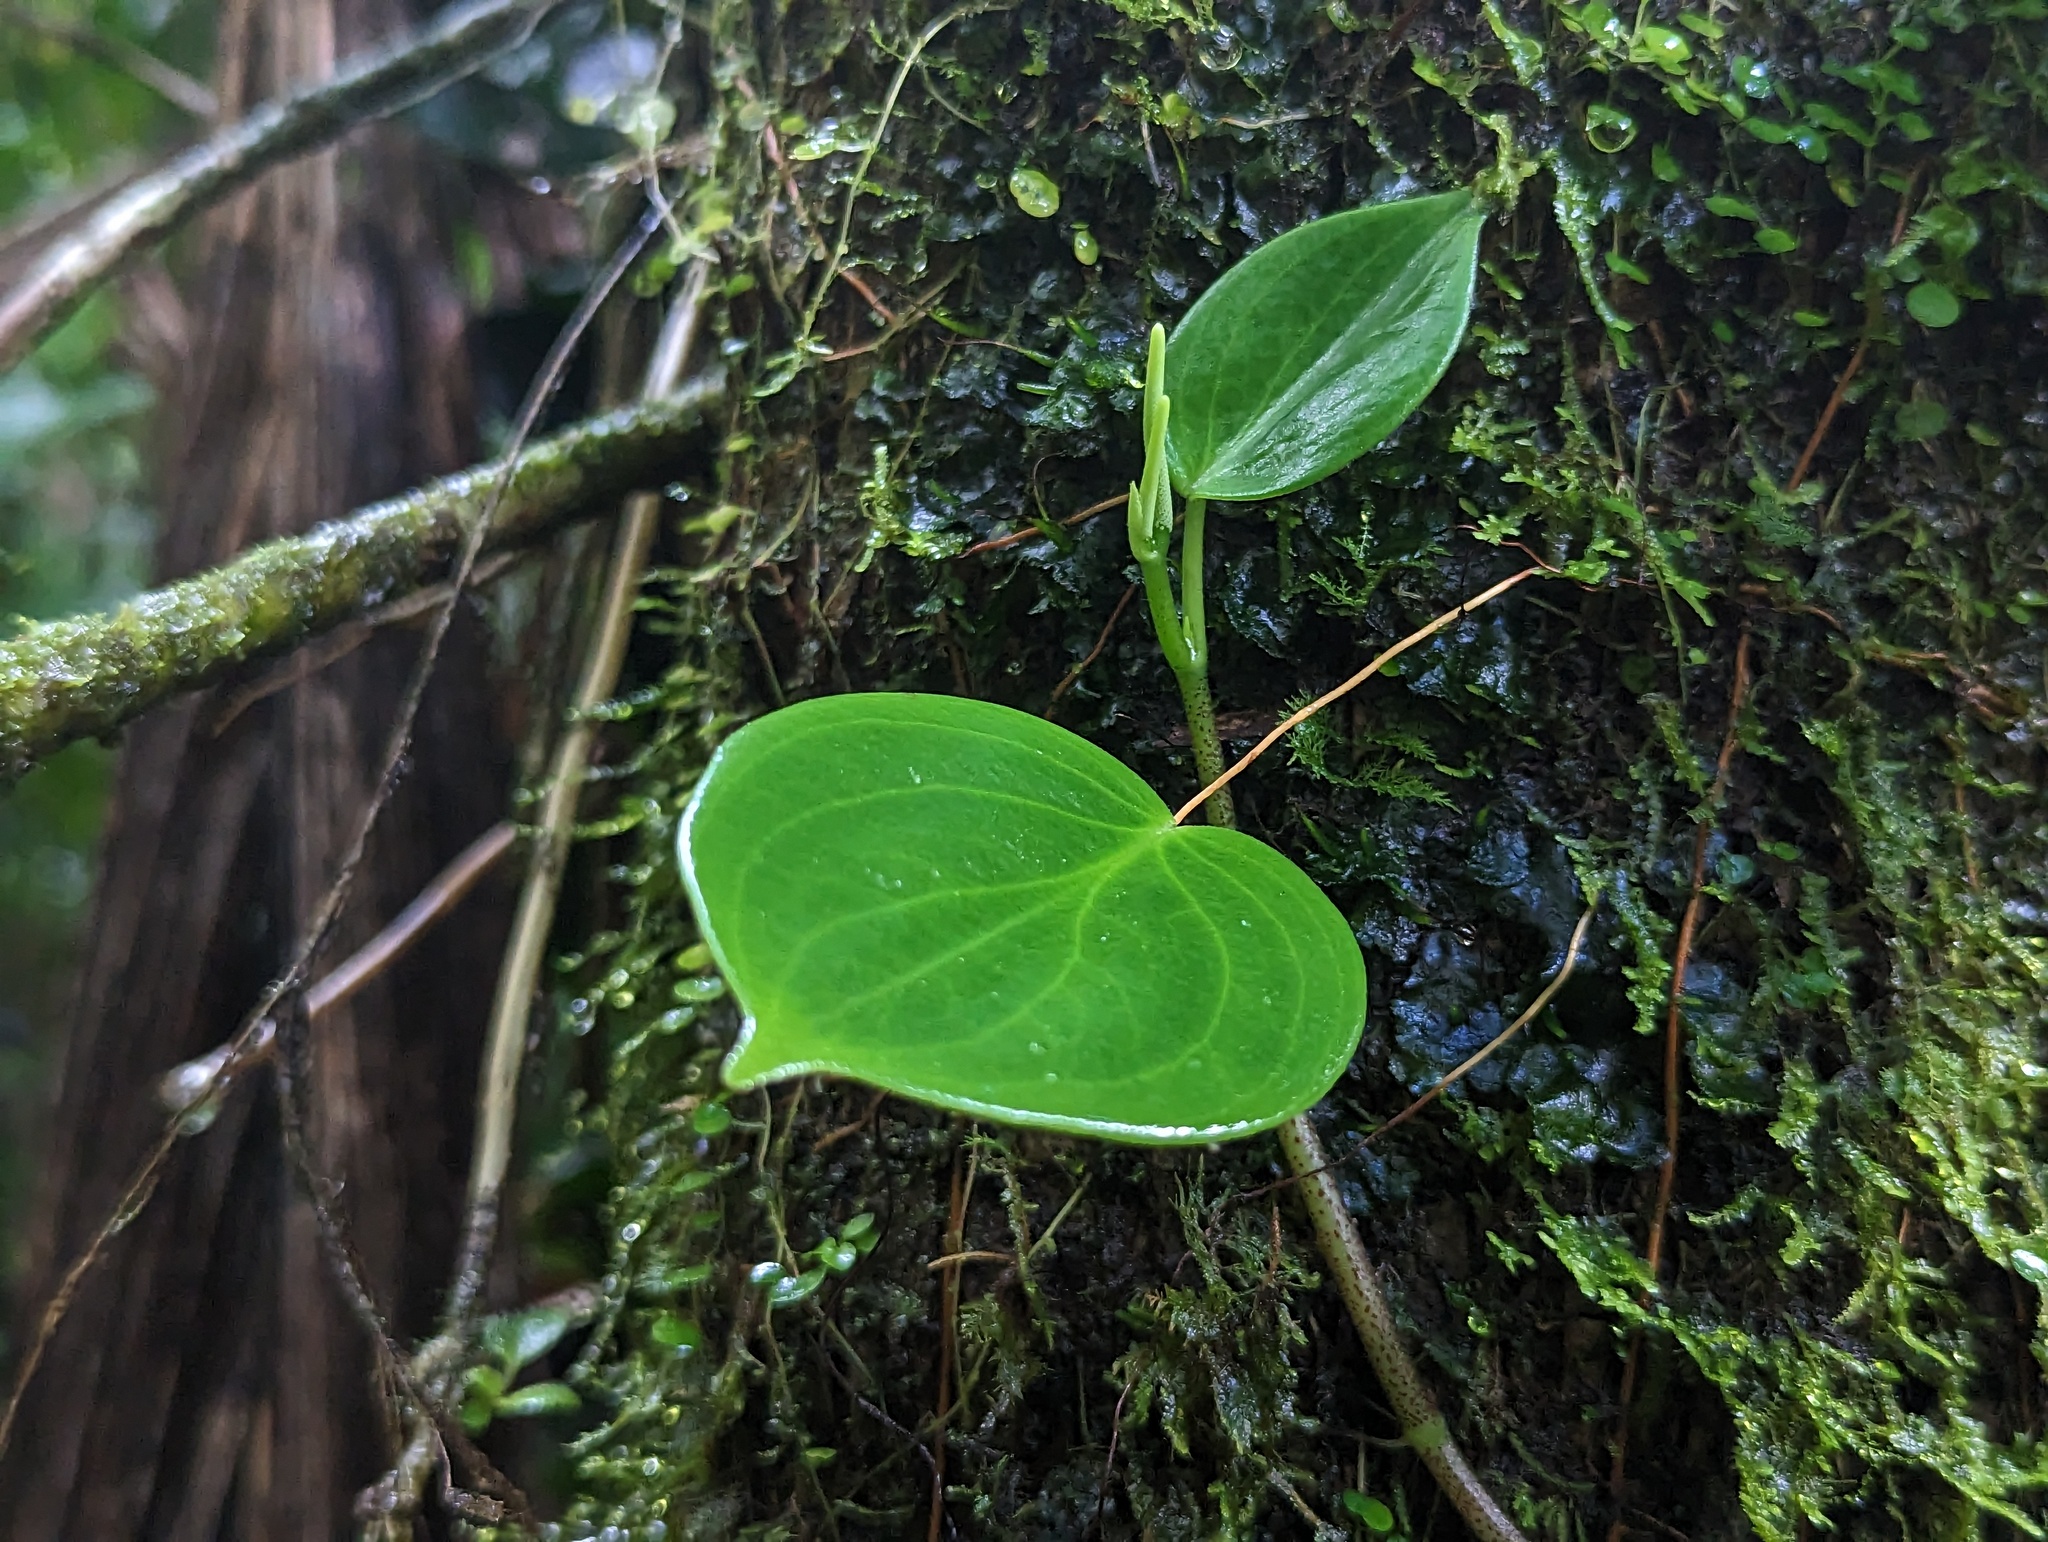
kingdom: Plantae
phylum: Tracheophyta
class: Magnoliopsida
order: Piperales
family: Piperaceae
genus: Peperomia
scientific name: Peperomia distachyos
